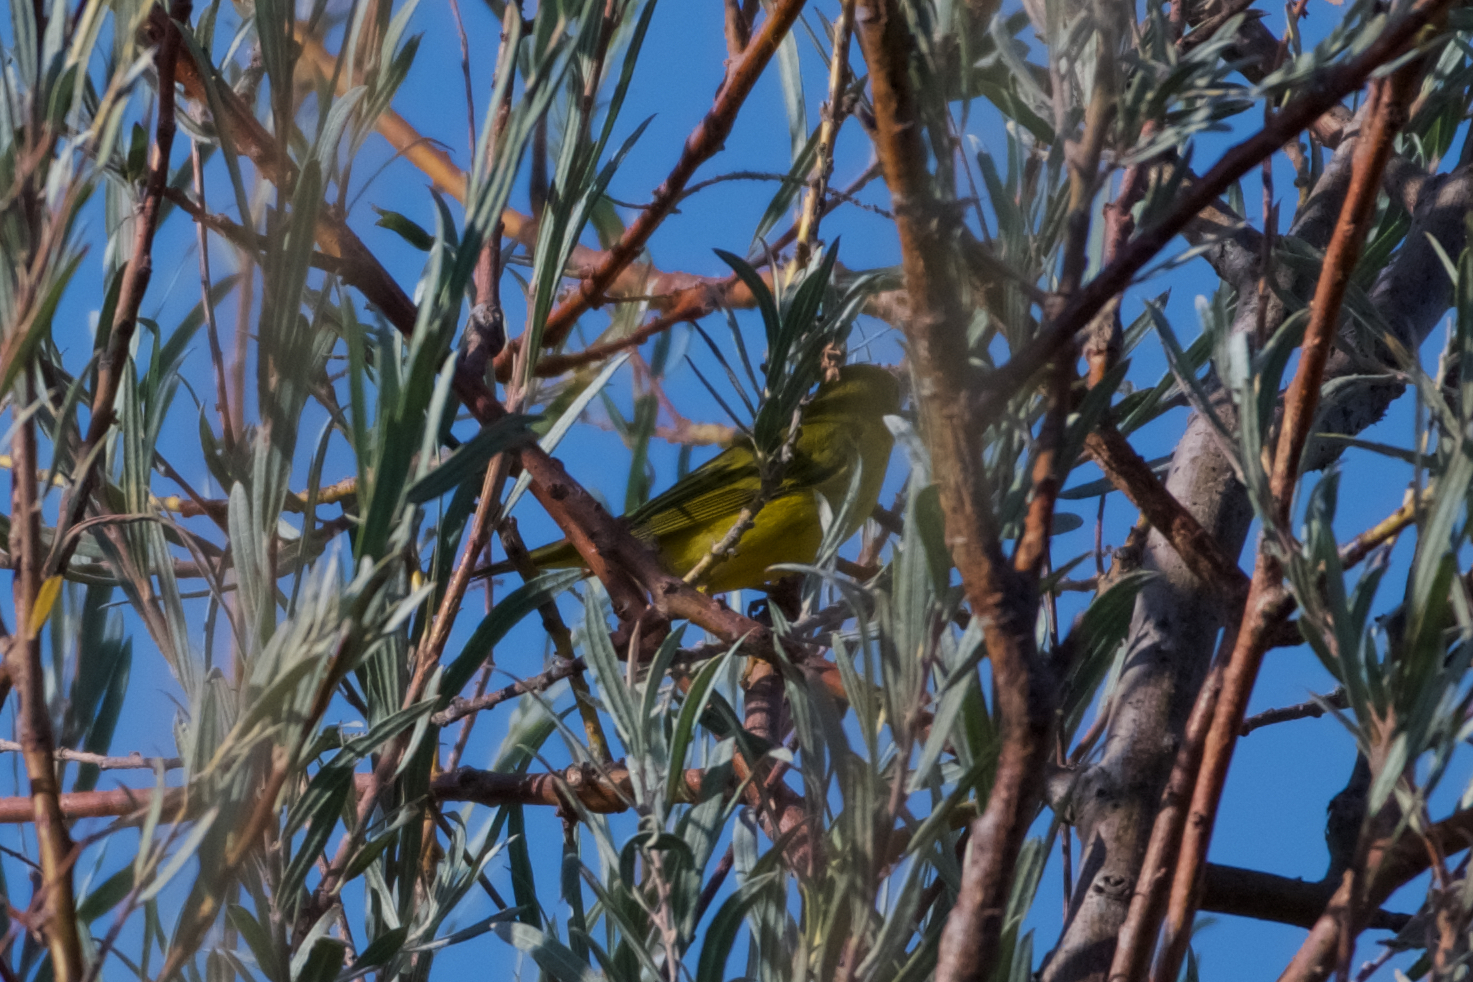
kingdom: Animalia
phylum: Chordata
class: Aves
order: Passeriformes
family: Parulidae
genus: Setophaga
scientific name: Setophaga petechia
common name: Yellow warbler
